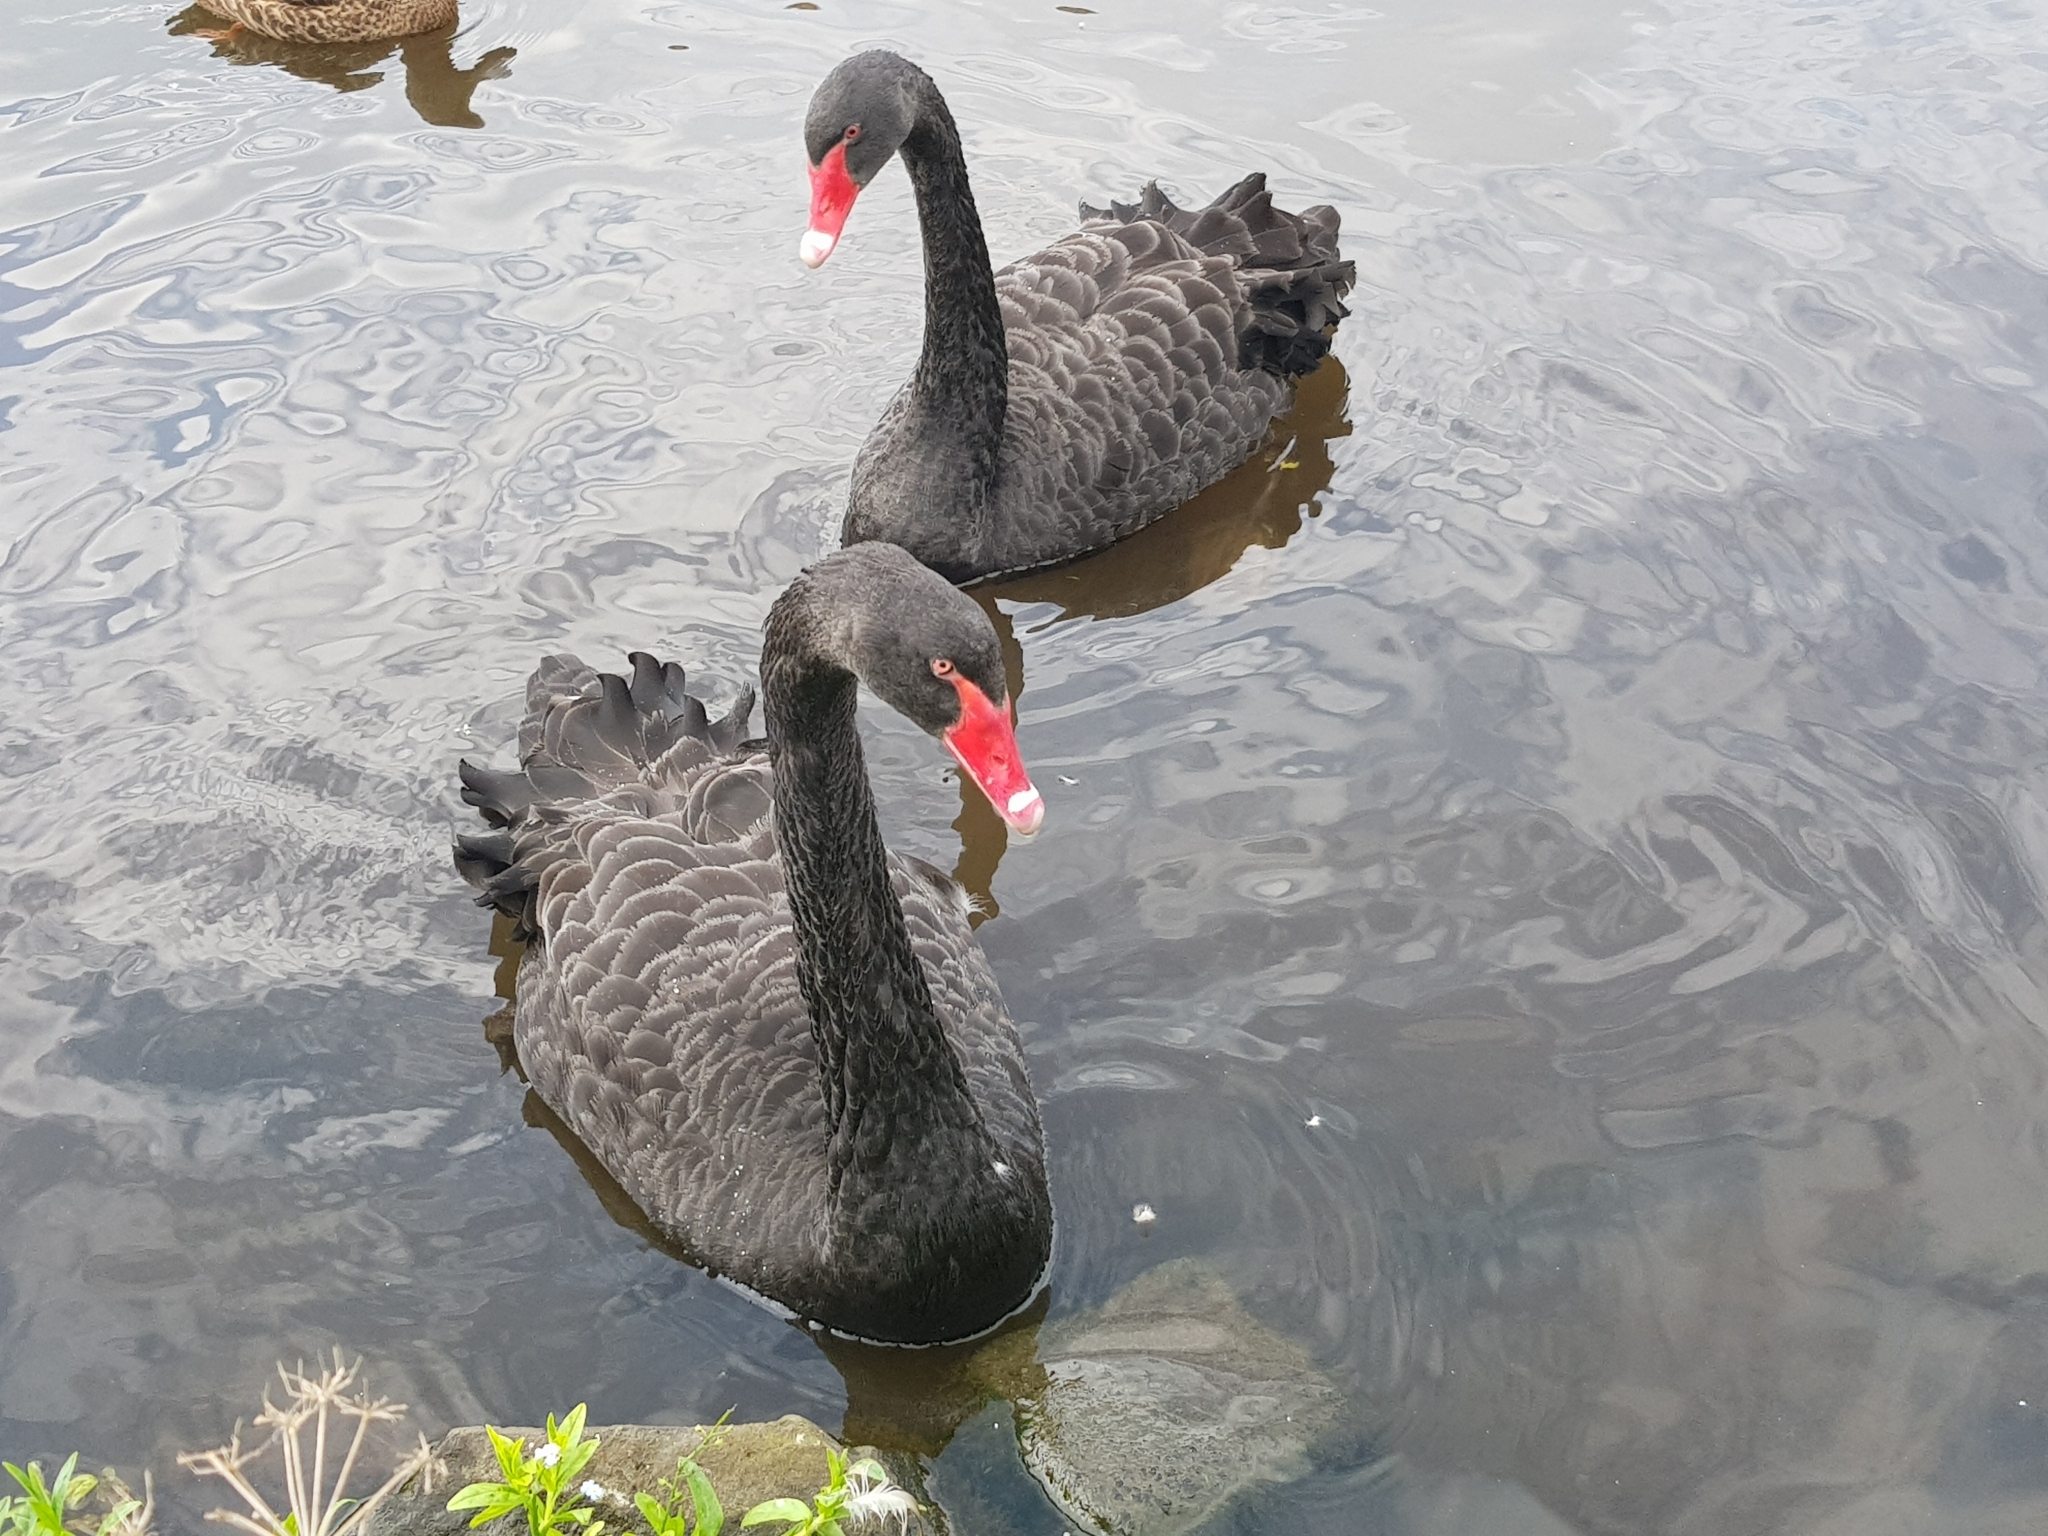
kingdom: Animalia
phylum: Chordata
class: Aves
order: Anseriformes
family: Anatidae
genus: Cygnus
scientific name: Cygnus atratus
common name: Black swan
